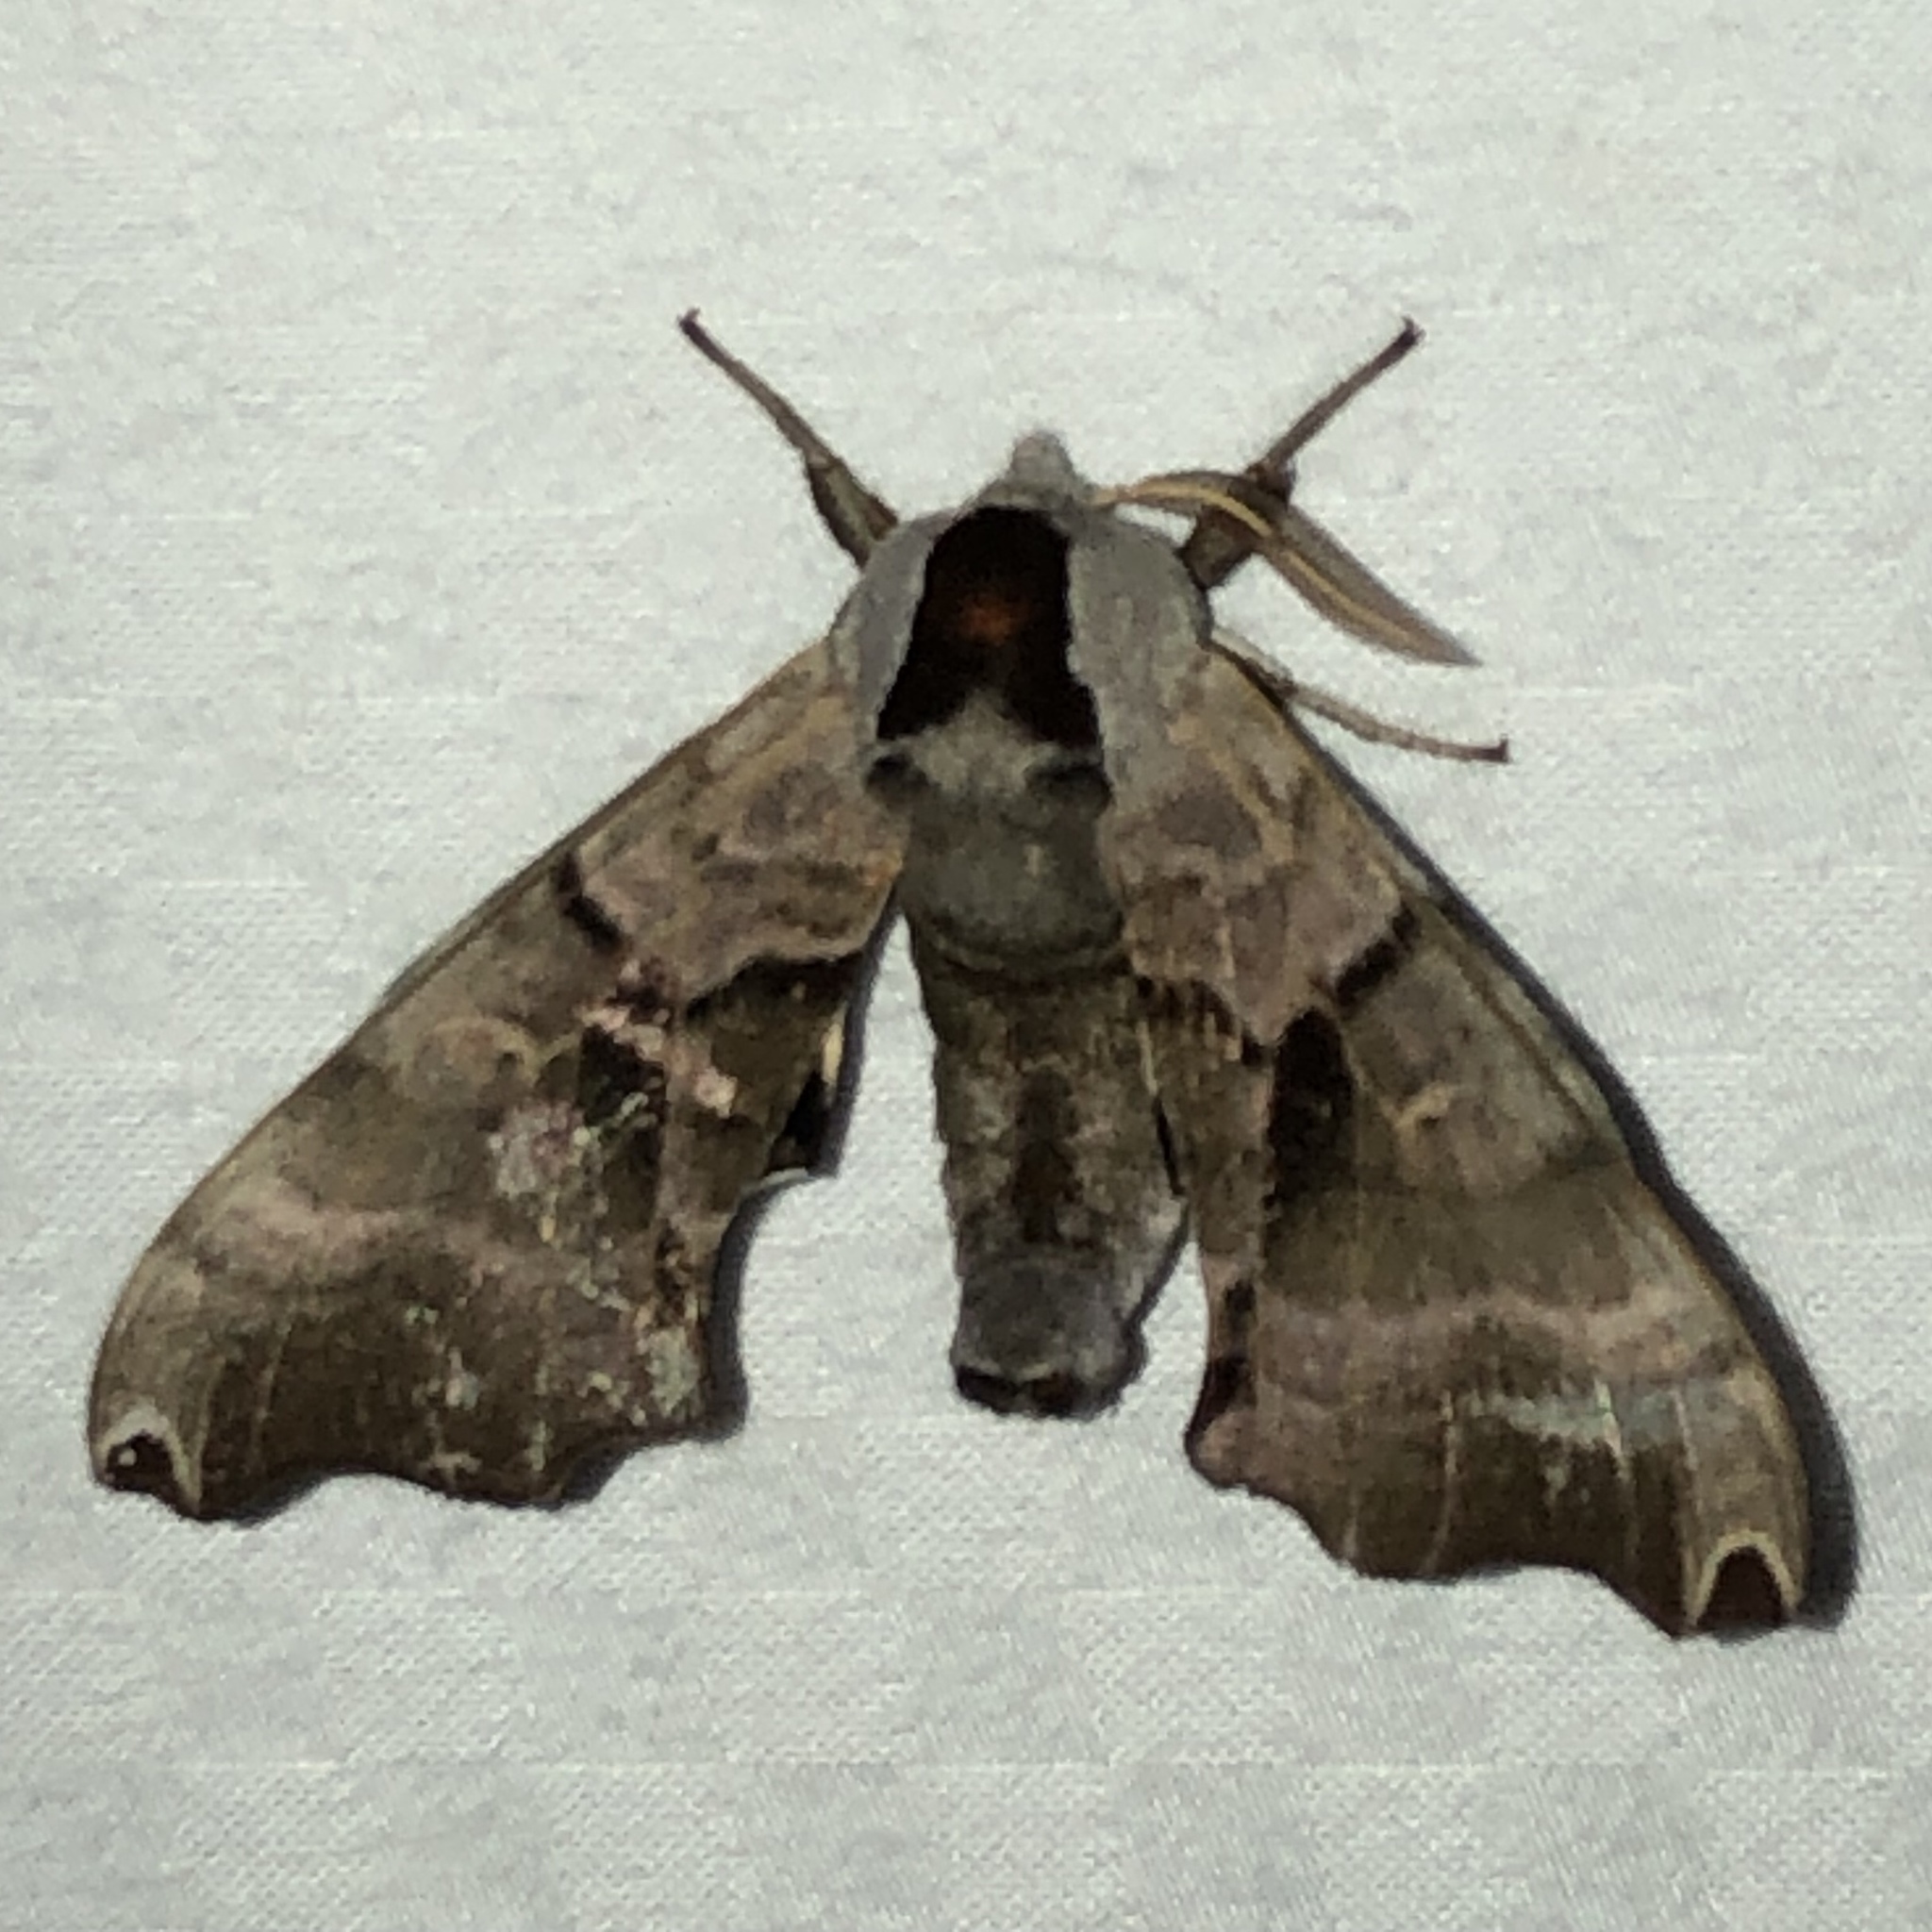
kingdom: Animalia
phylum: Arthropoda
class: Insecta
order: Lepidoptera
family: Sphingidae
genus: Smerinthus
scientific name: Smerinthus jamaicensis
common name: Twin spotted sphinx
